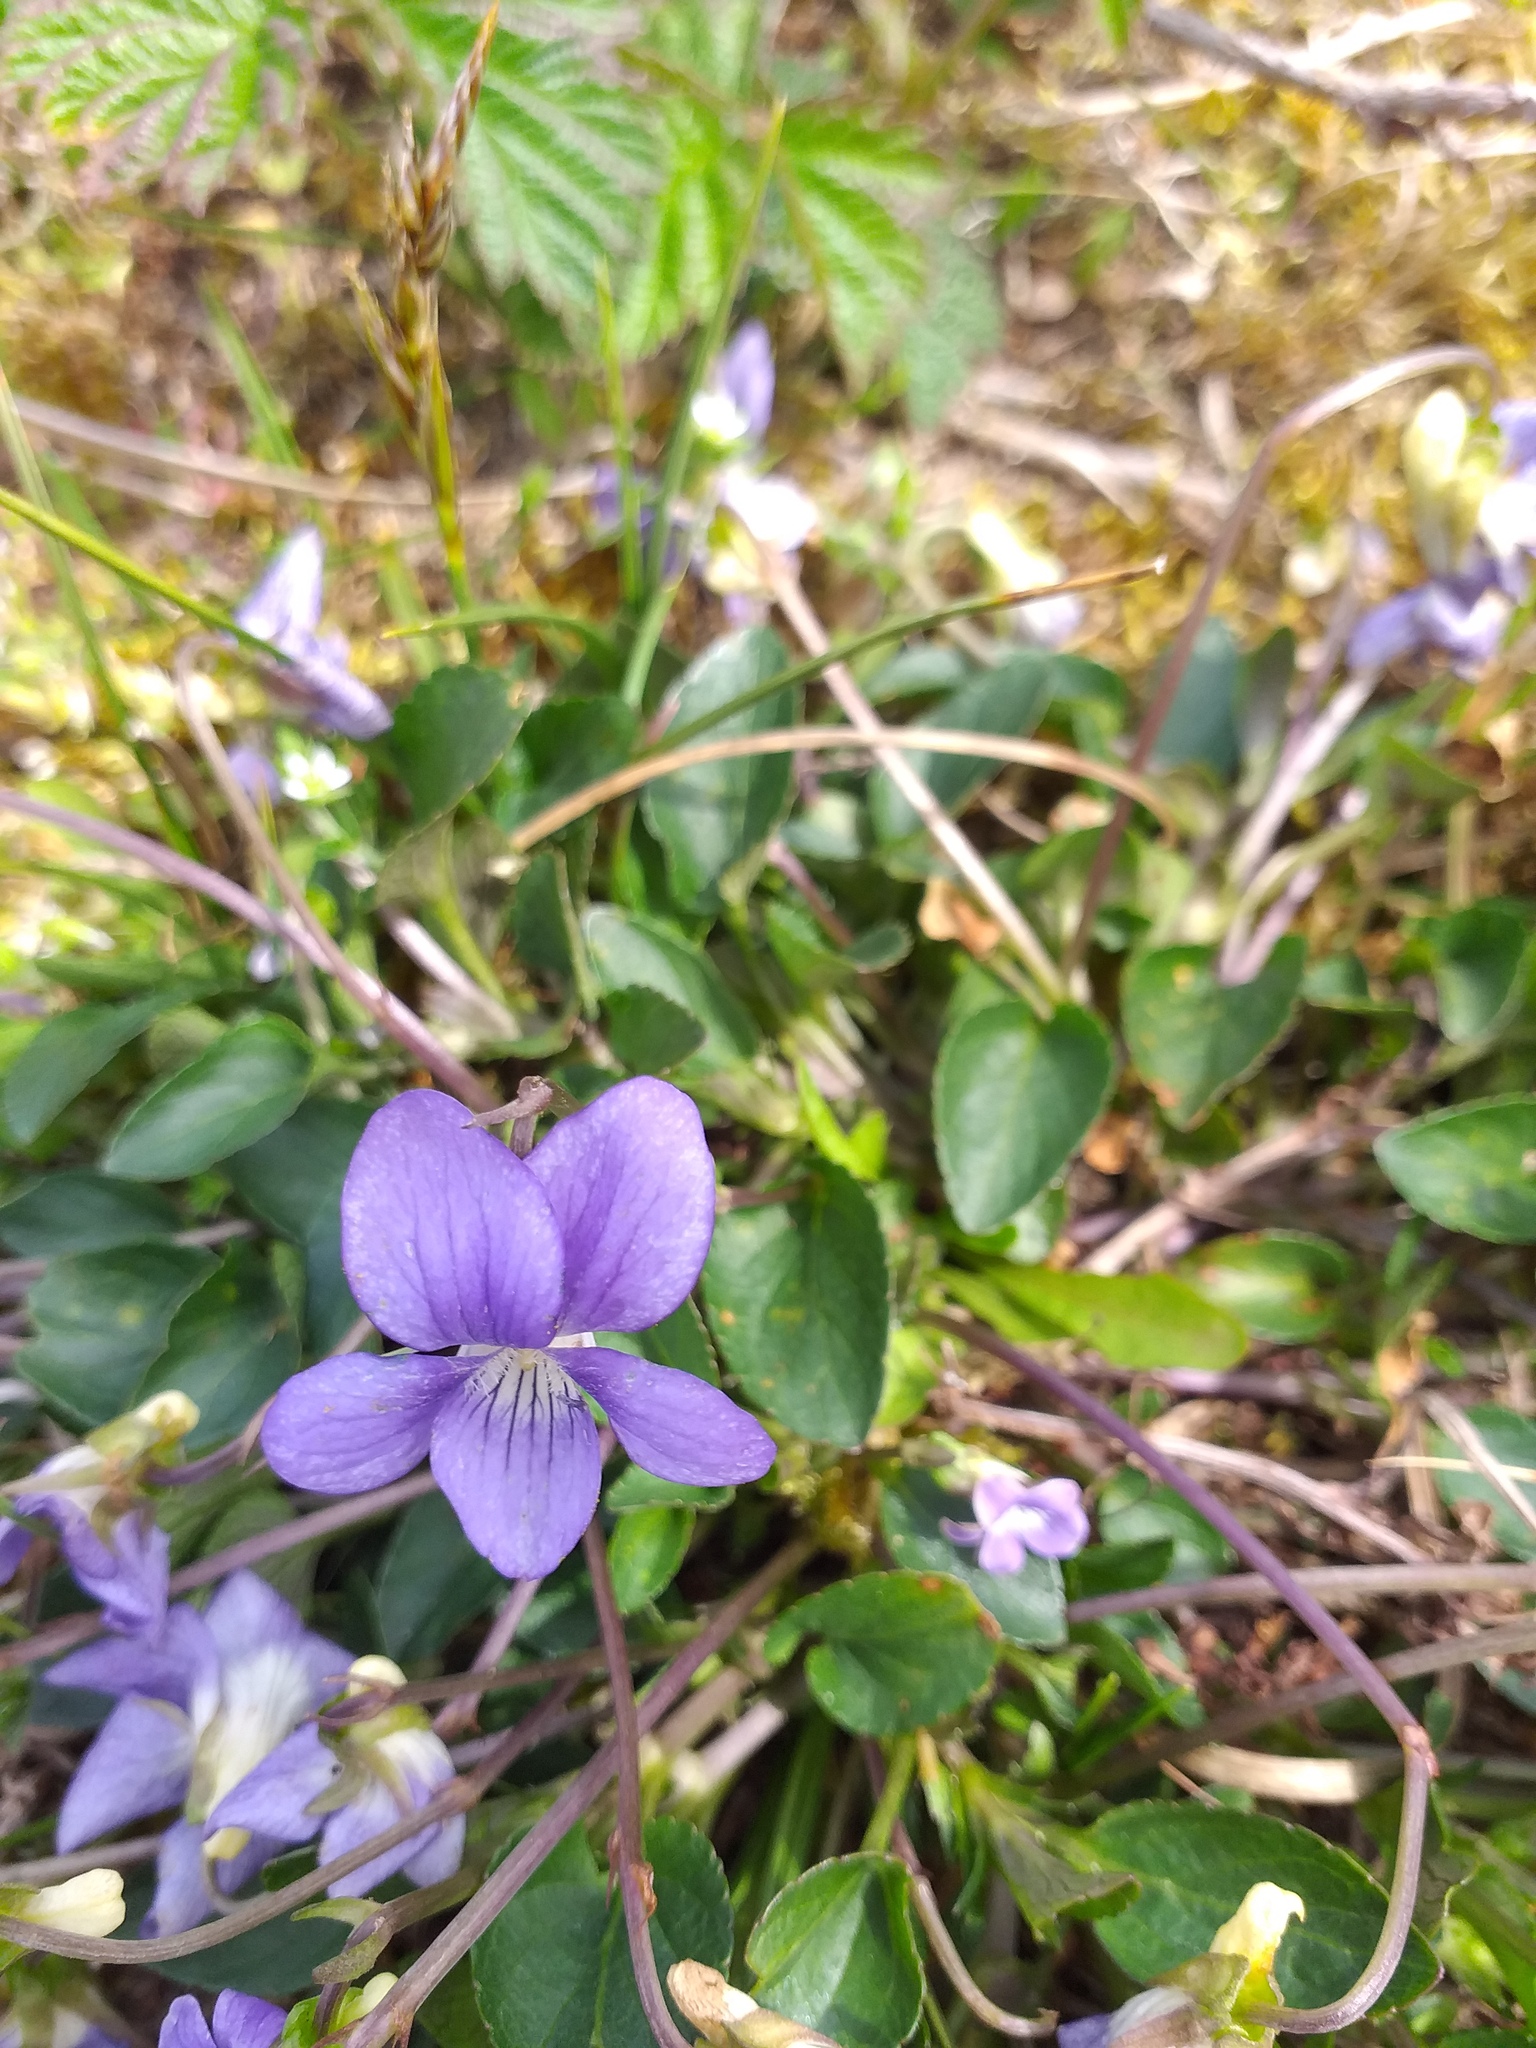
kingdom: Plantae
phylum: Tracheophyta
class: Magnoliopsida
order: Malpighiales
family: Violaceae
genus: Viola
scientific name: Viola canina
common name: Heath dog-violet
